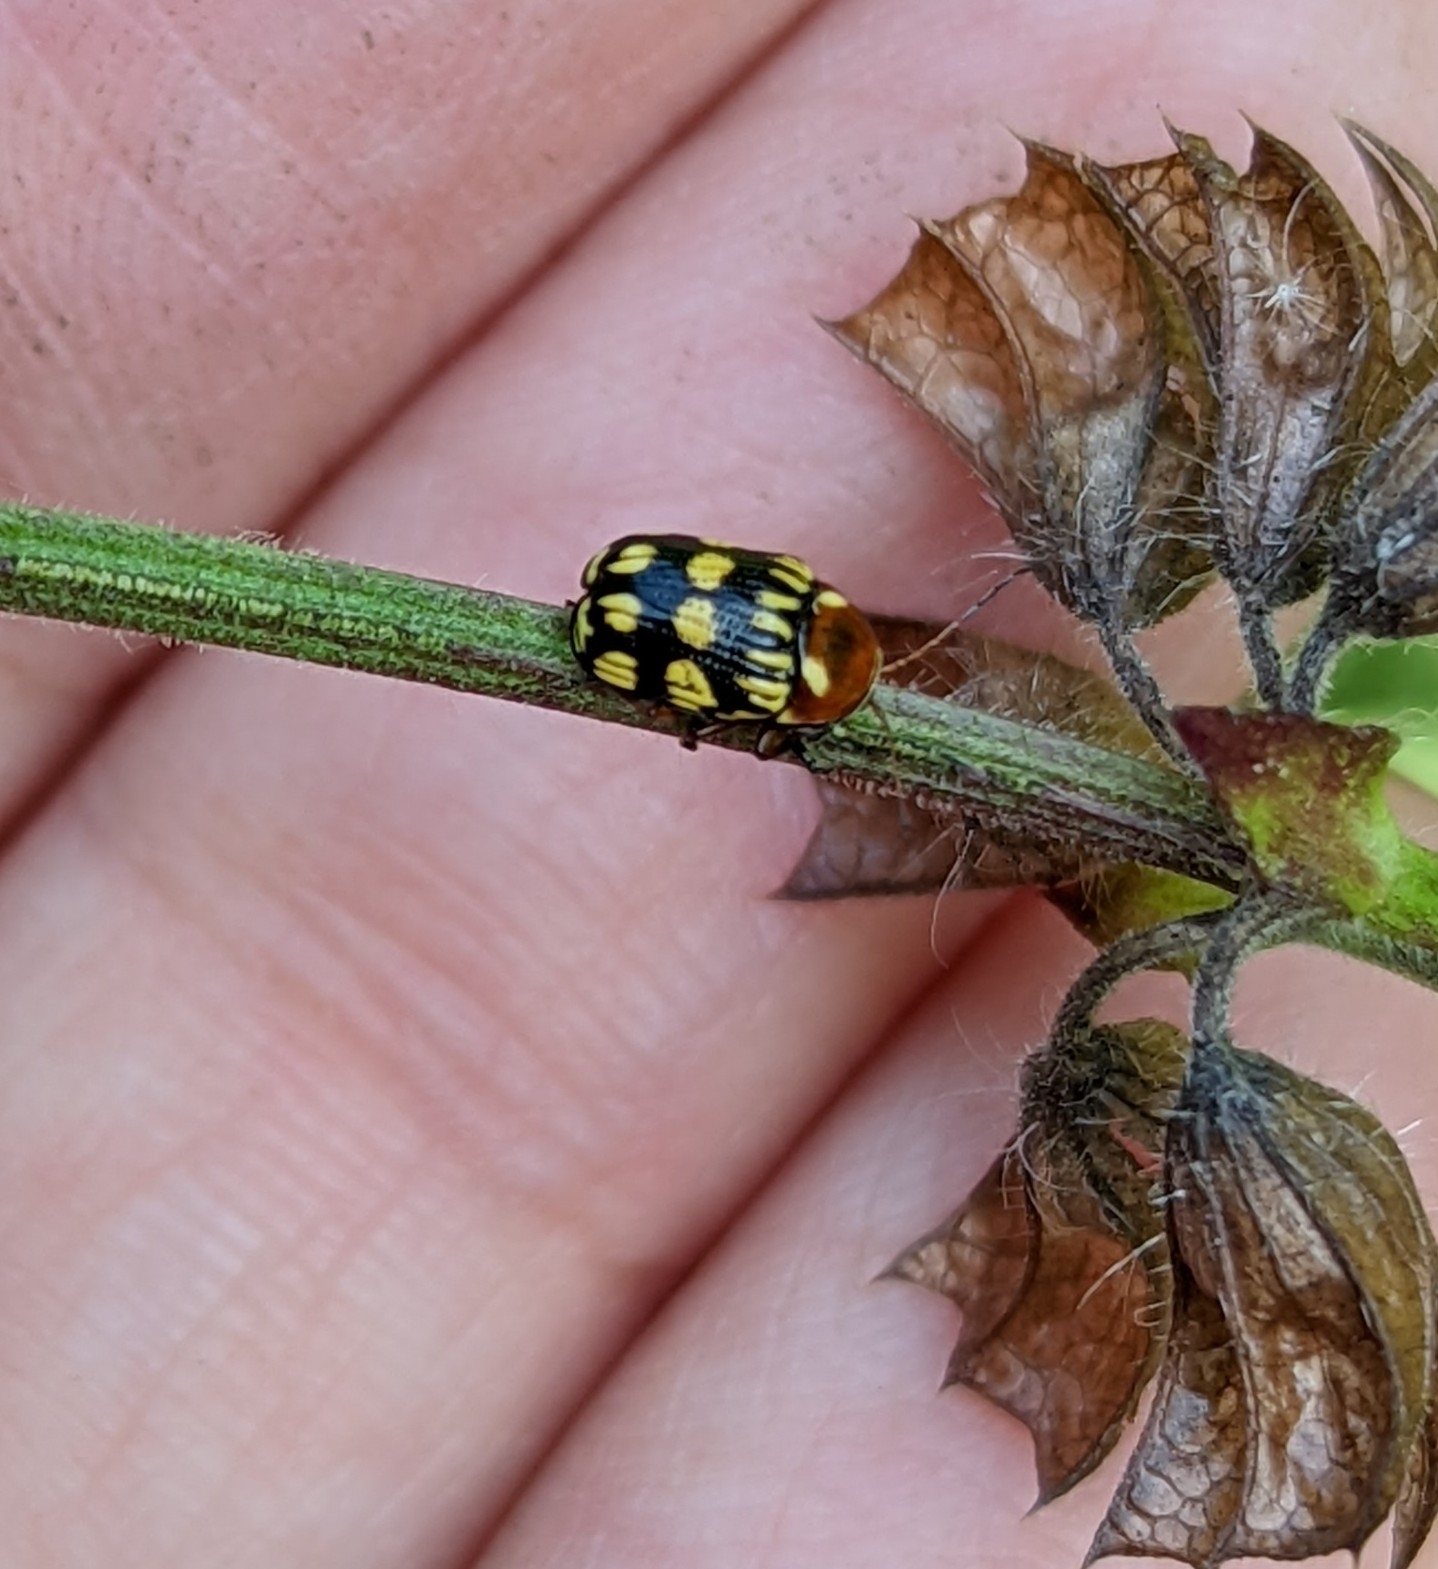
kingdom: Animalia
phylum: Arthropoda
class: Insecta
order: Coleoptera
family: Chrysomelidae
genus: Bassareus
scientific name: Bassareus clathratus
